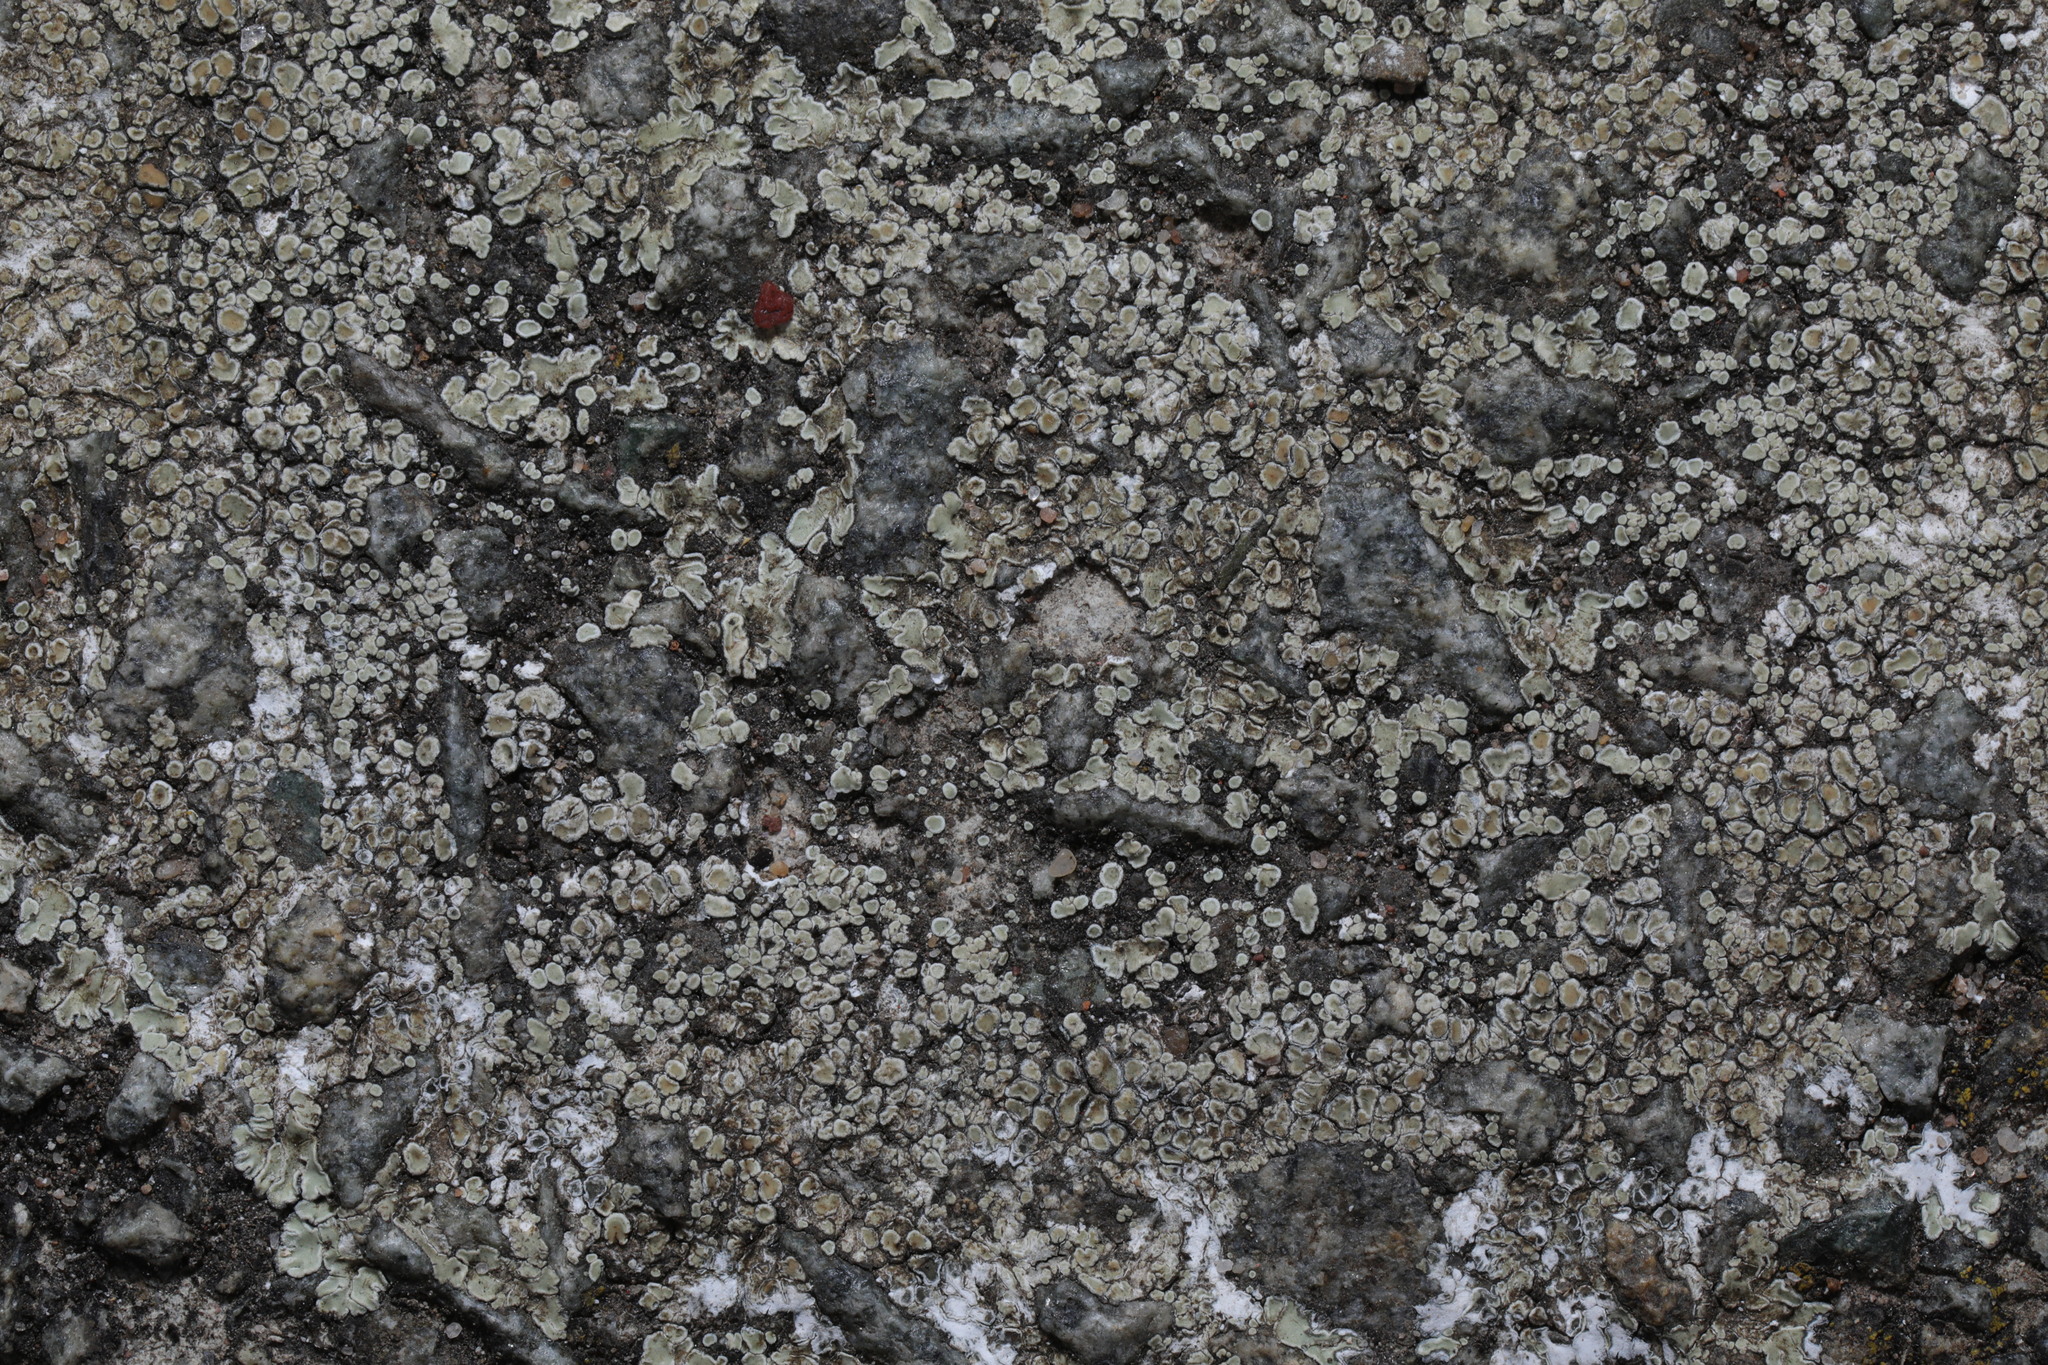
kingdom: Fungi
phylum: Ascomycota
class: Lecanoromycetes
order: Lecanorales
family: Lecanoraceae
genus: Protoparmeliopsis
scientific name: Protoparmeliopsis muralis
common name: Stonewall rim lichen
